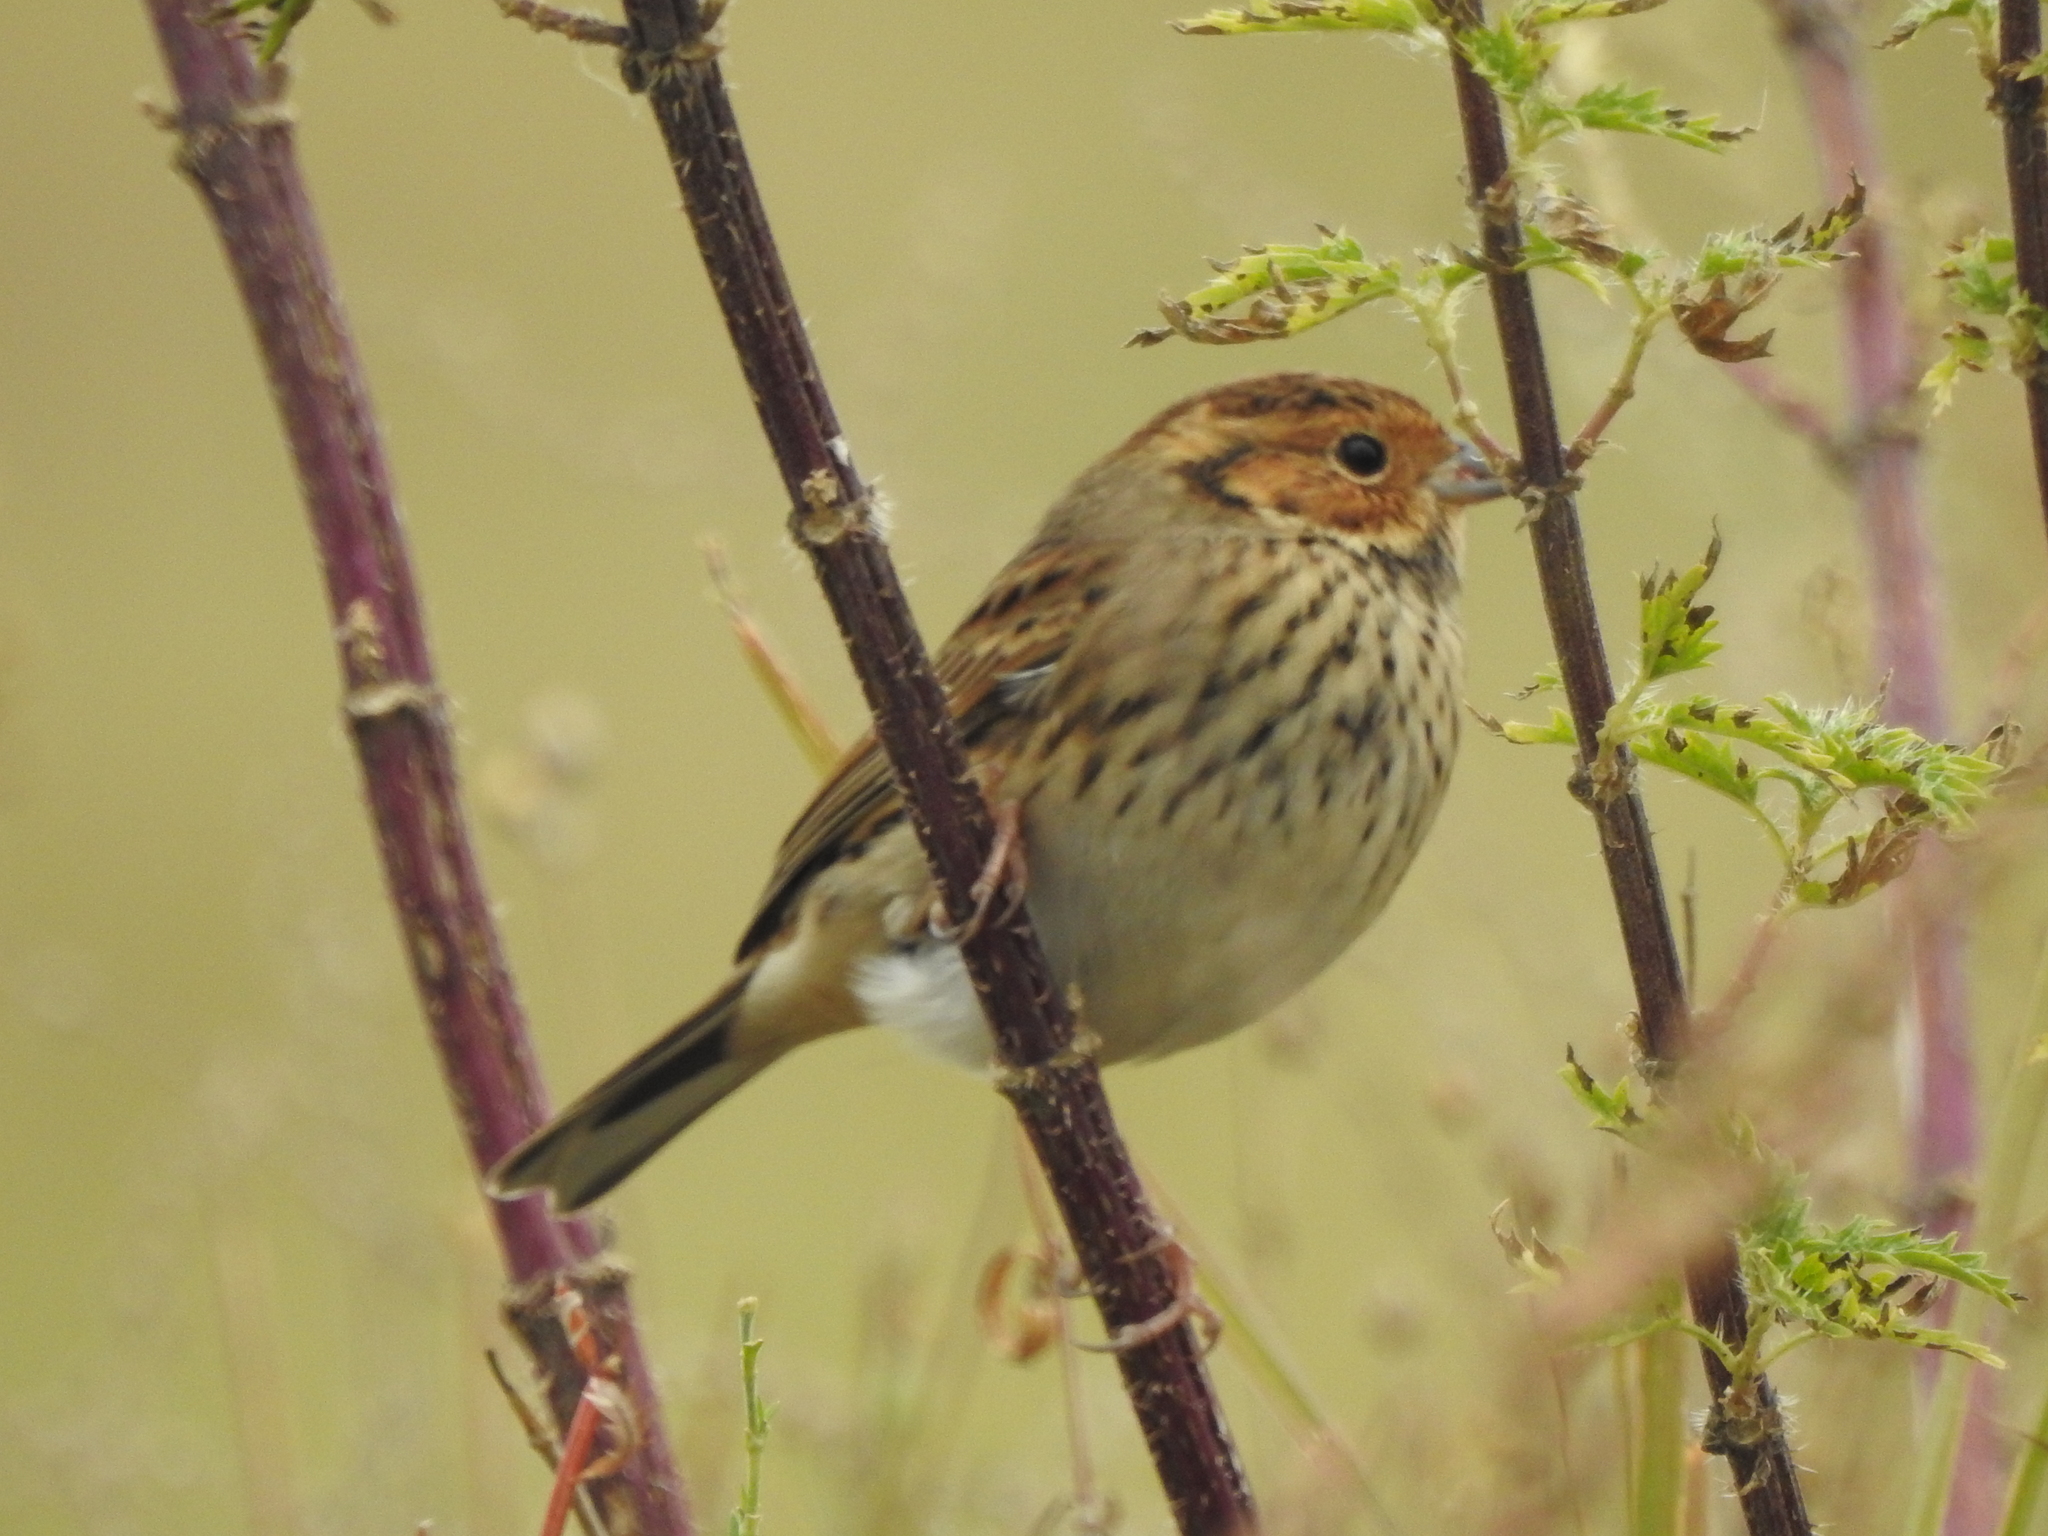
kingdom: Animalia
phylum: Chordata
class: Aves
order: Passeriformes
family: Emberizidae
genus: Emberiza
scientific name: Emberiza pusilla
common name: Little bunting
